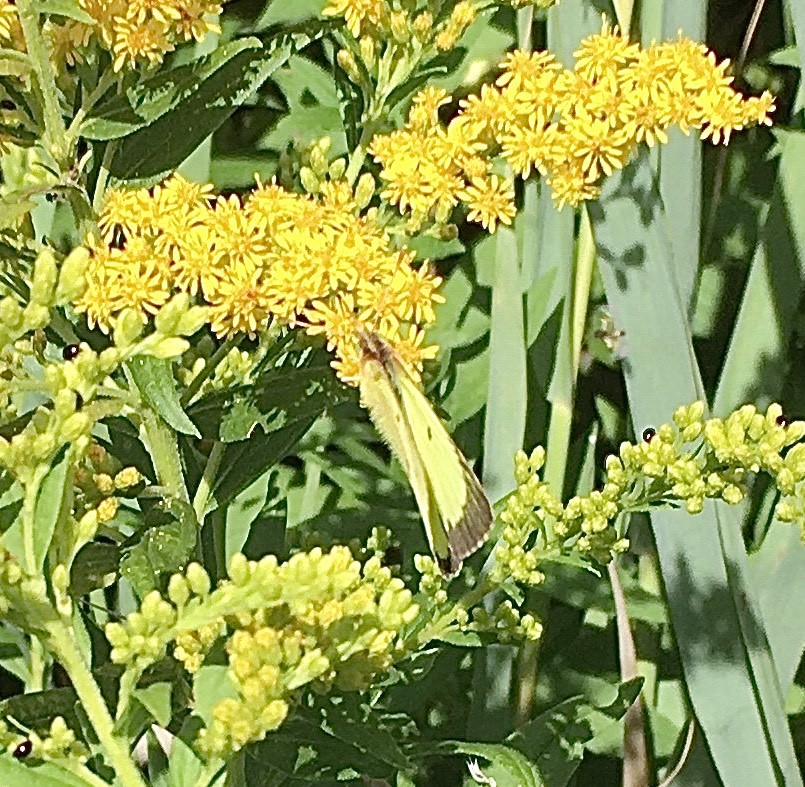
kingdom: Animalia
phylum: Arthropoda
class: Insecta
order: Lepidoptera
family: Pieridae
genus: Colias
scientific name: Colias philodice
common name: Clouded sulphur
